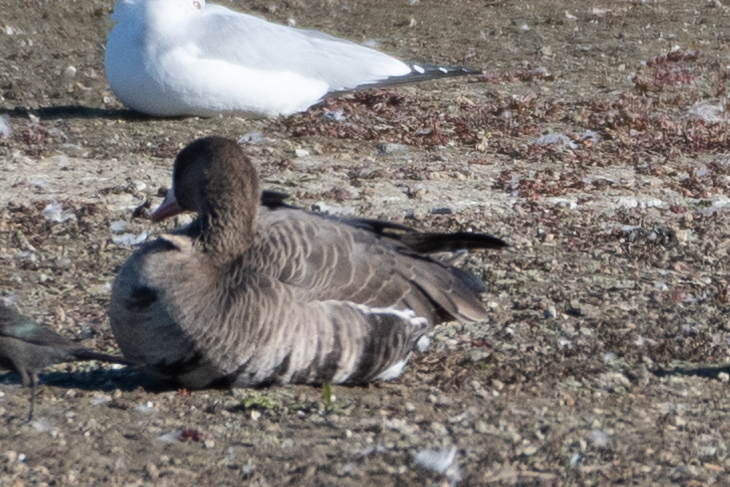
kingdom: Animalia
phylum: Chordata
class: Aves
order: Anseriformes
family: Anatidae
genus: Anser
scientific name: Anser albifrons
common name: Greater white-fronted goose
